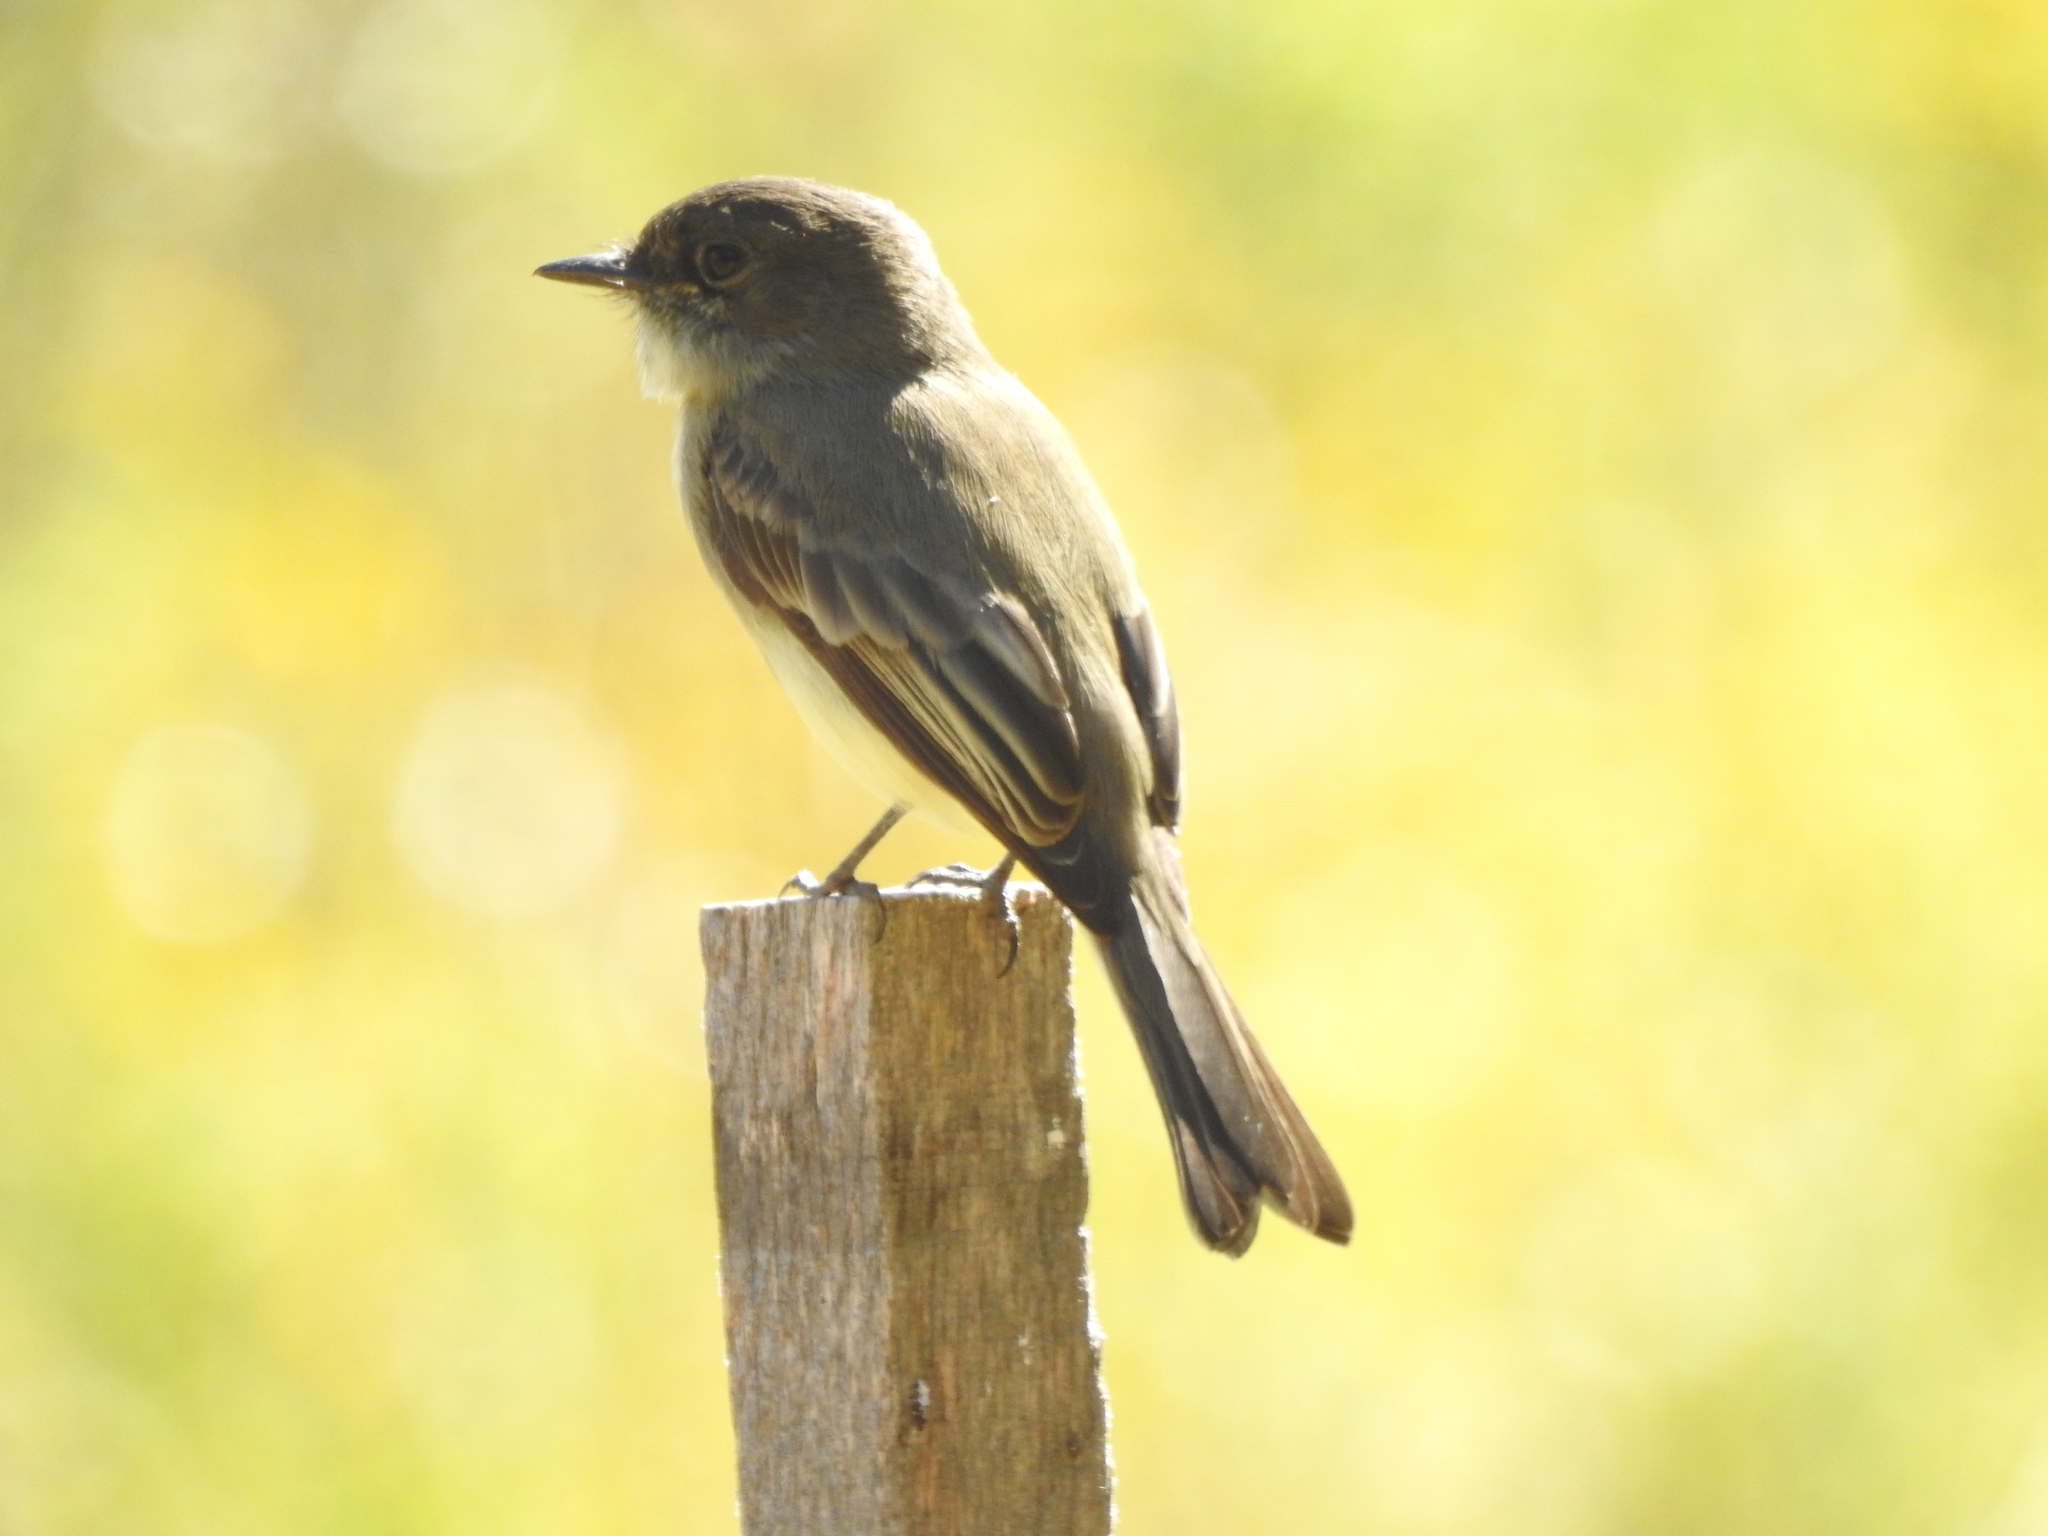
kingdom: Animalia
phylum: Chordata
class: Aves
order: Passeriformes
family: Tyrannidae
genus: Sayornis
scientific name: Sayornis phoebe
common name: Eastern phoebe
